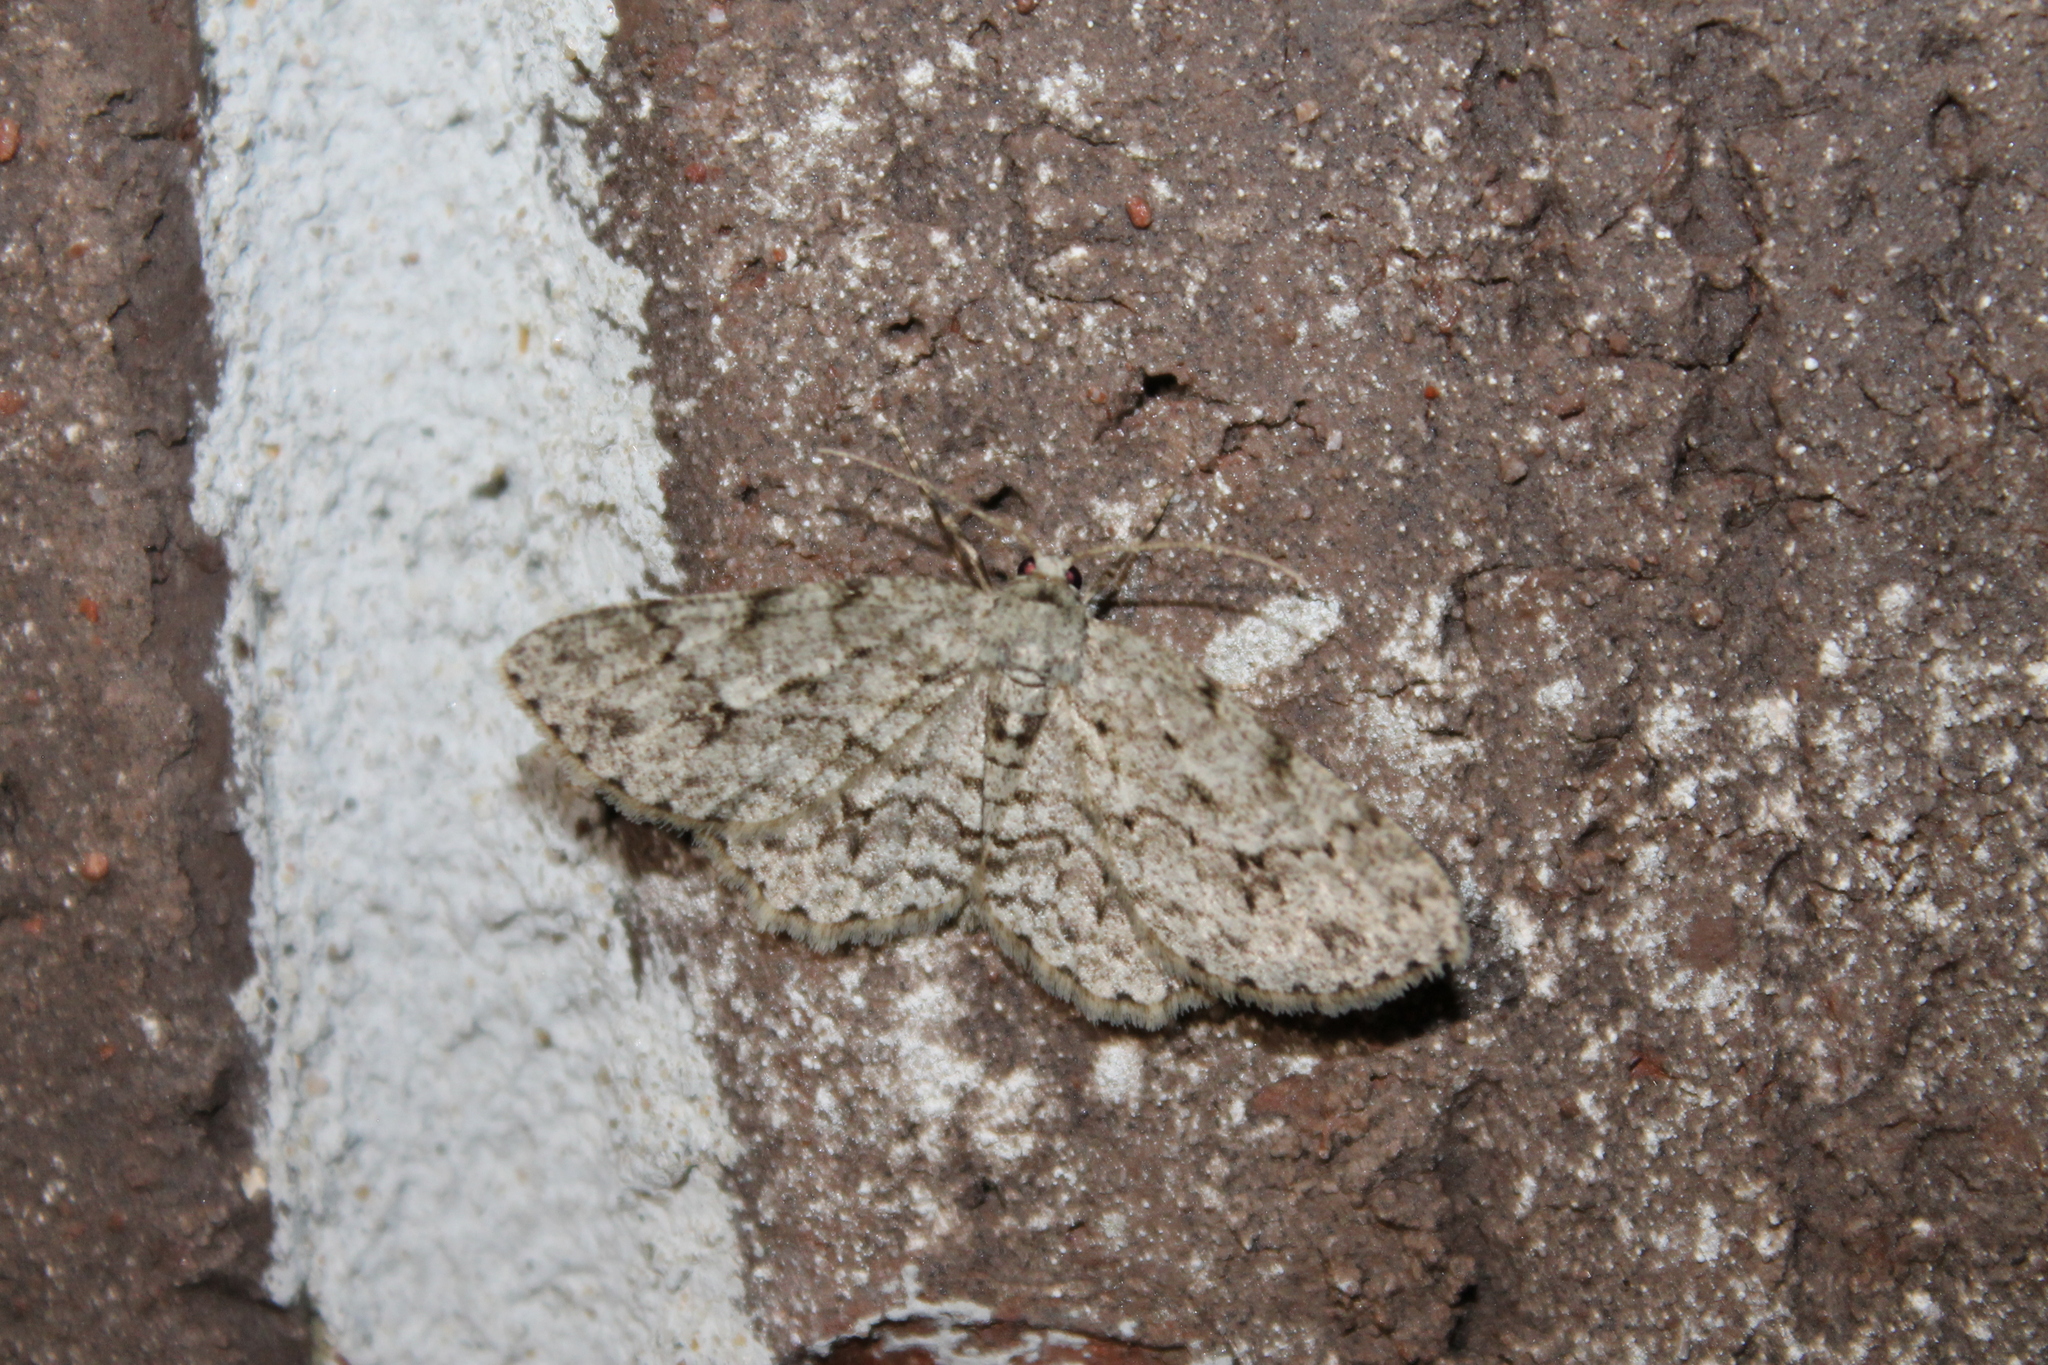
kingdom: Animalia
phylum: Arthropoda
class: Insecta
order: Lepidoptera
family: Geometridae
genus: Ectropis
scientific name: Ectropis crepuscularia
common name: Engrailed
